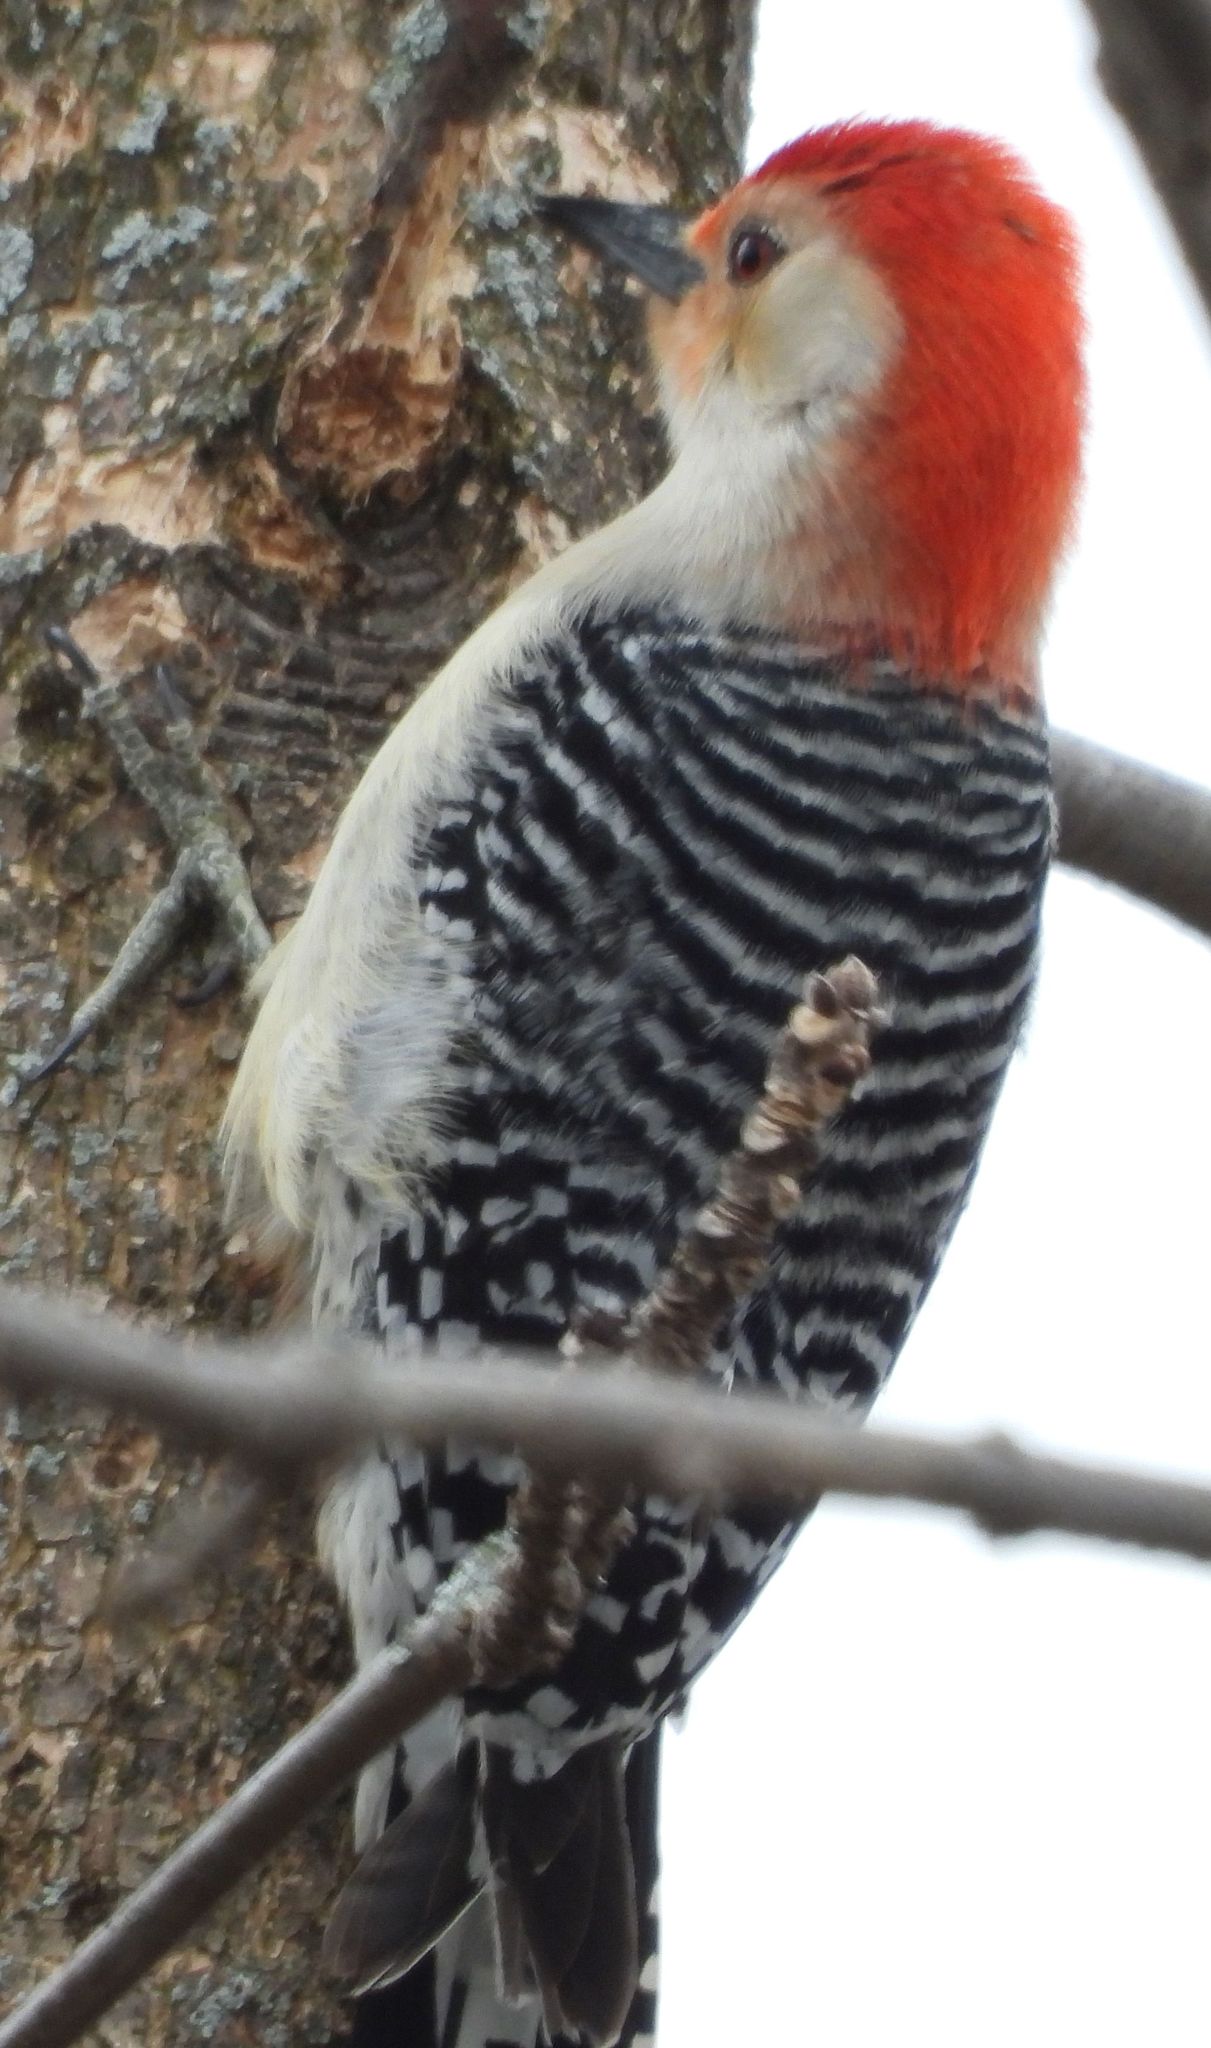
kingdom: Animalia
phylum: Chordata
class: Aves
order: Piciformes
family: Picidae
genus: Melanerpes
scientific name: Melanerpes carolinus
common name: Red-bellied woodpecker
